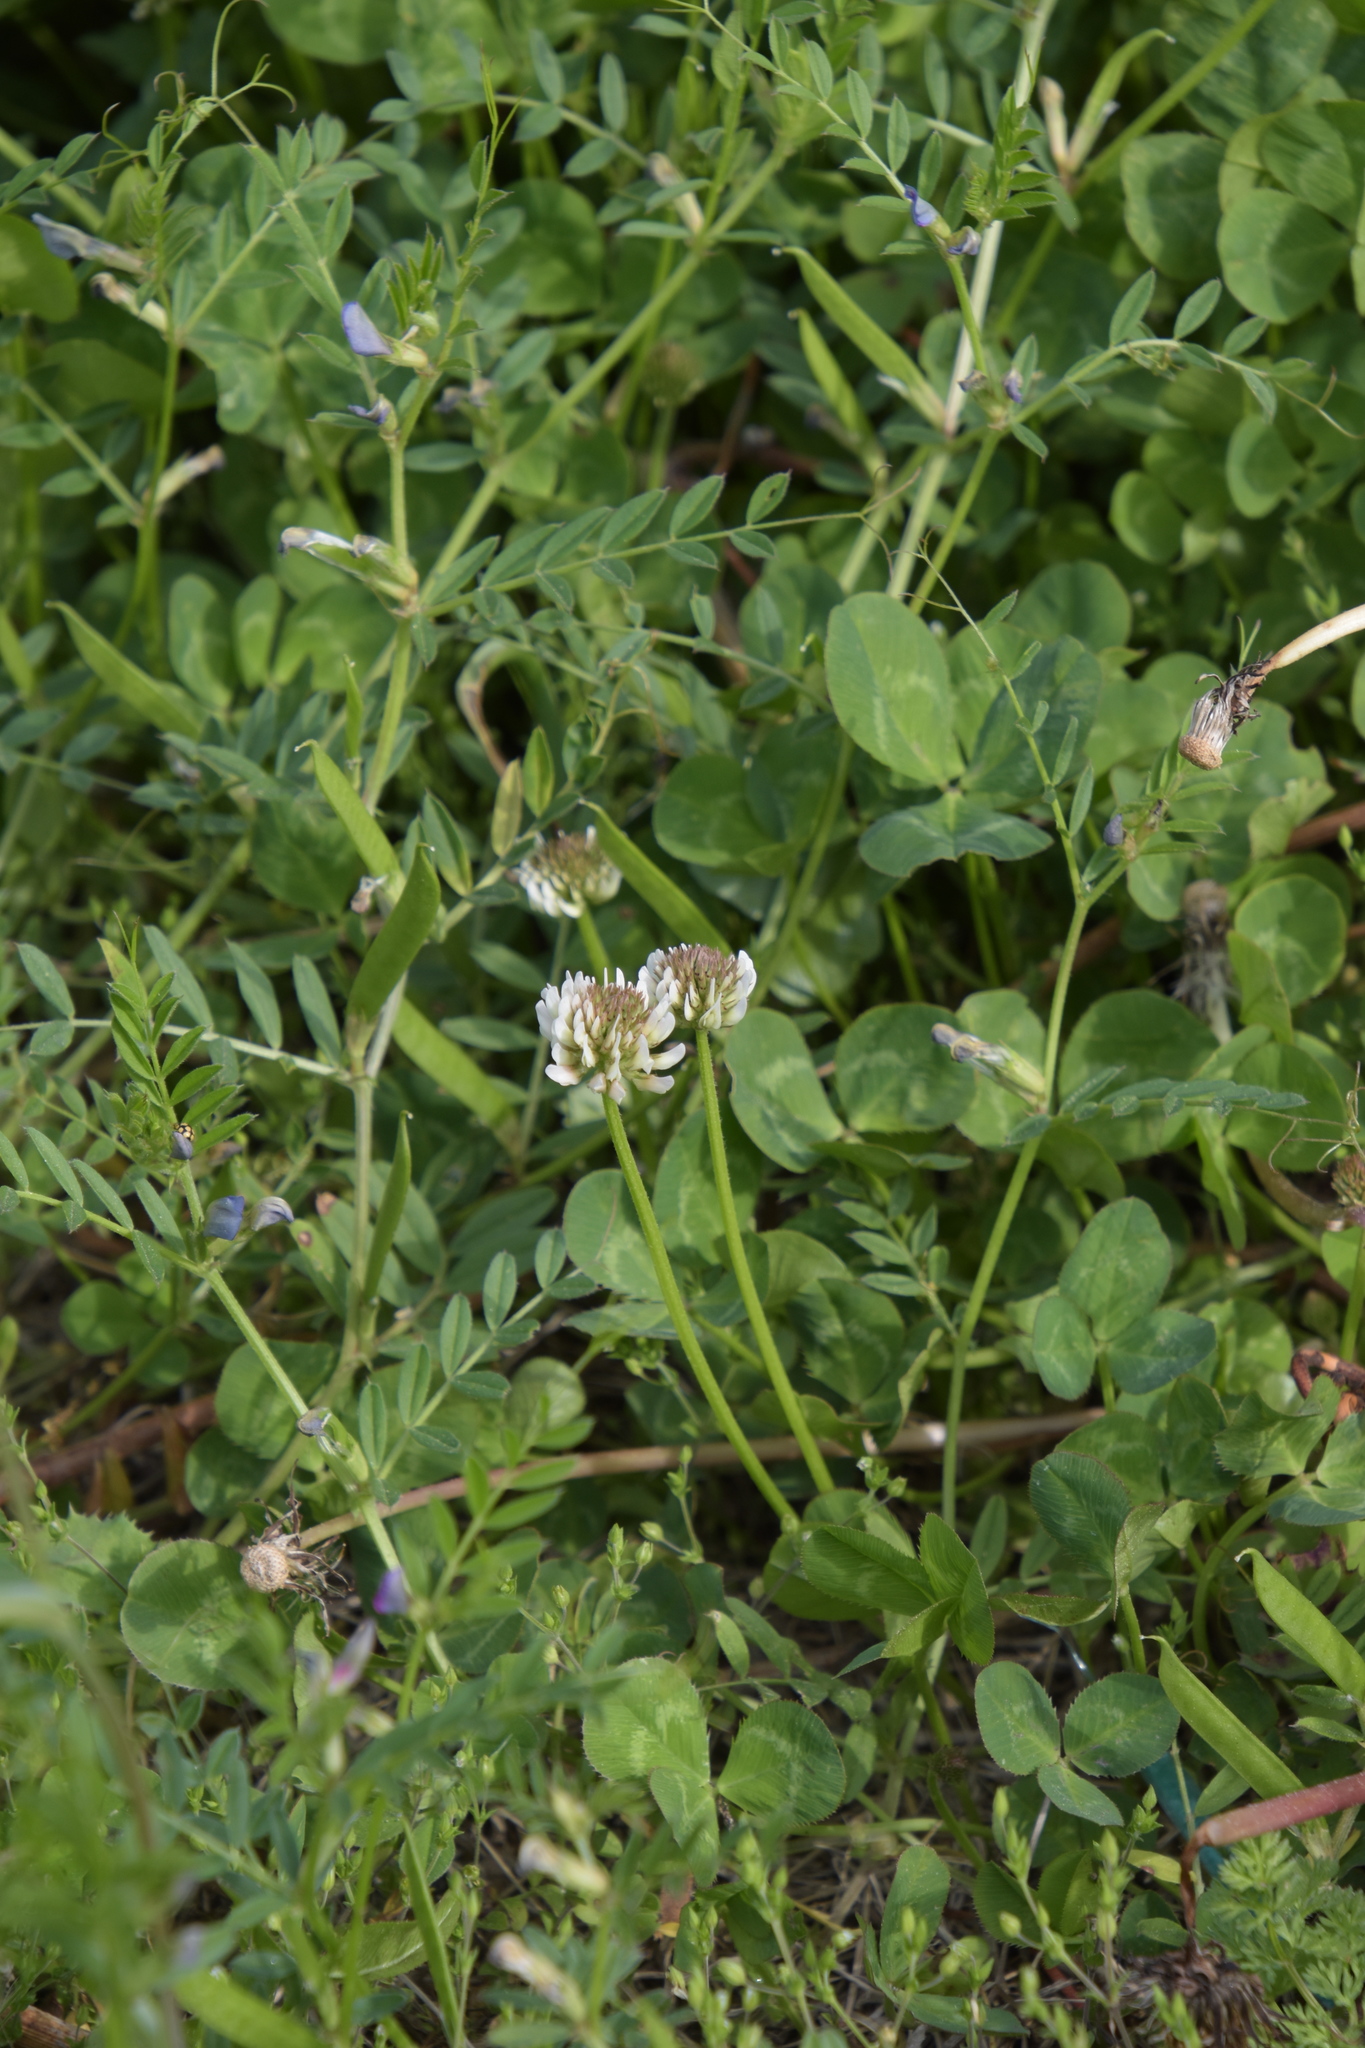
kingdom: Plantae
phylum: Tracheophyta
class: Magnoliopsida
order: Fabales
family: Fabaceae
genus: Trifolium
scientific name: Trifolium repens
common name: White clover
